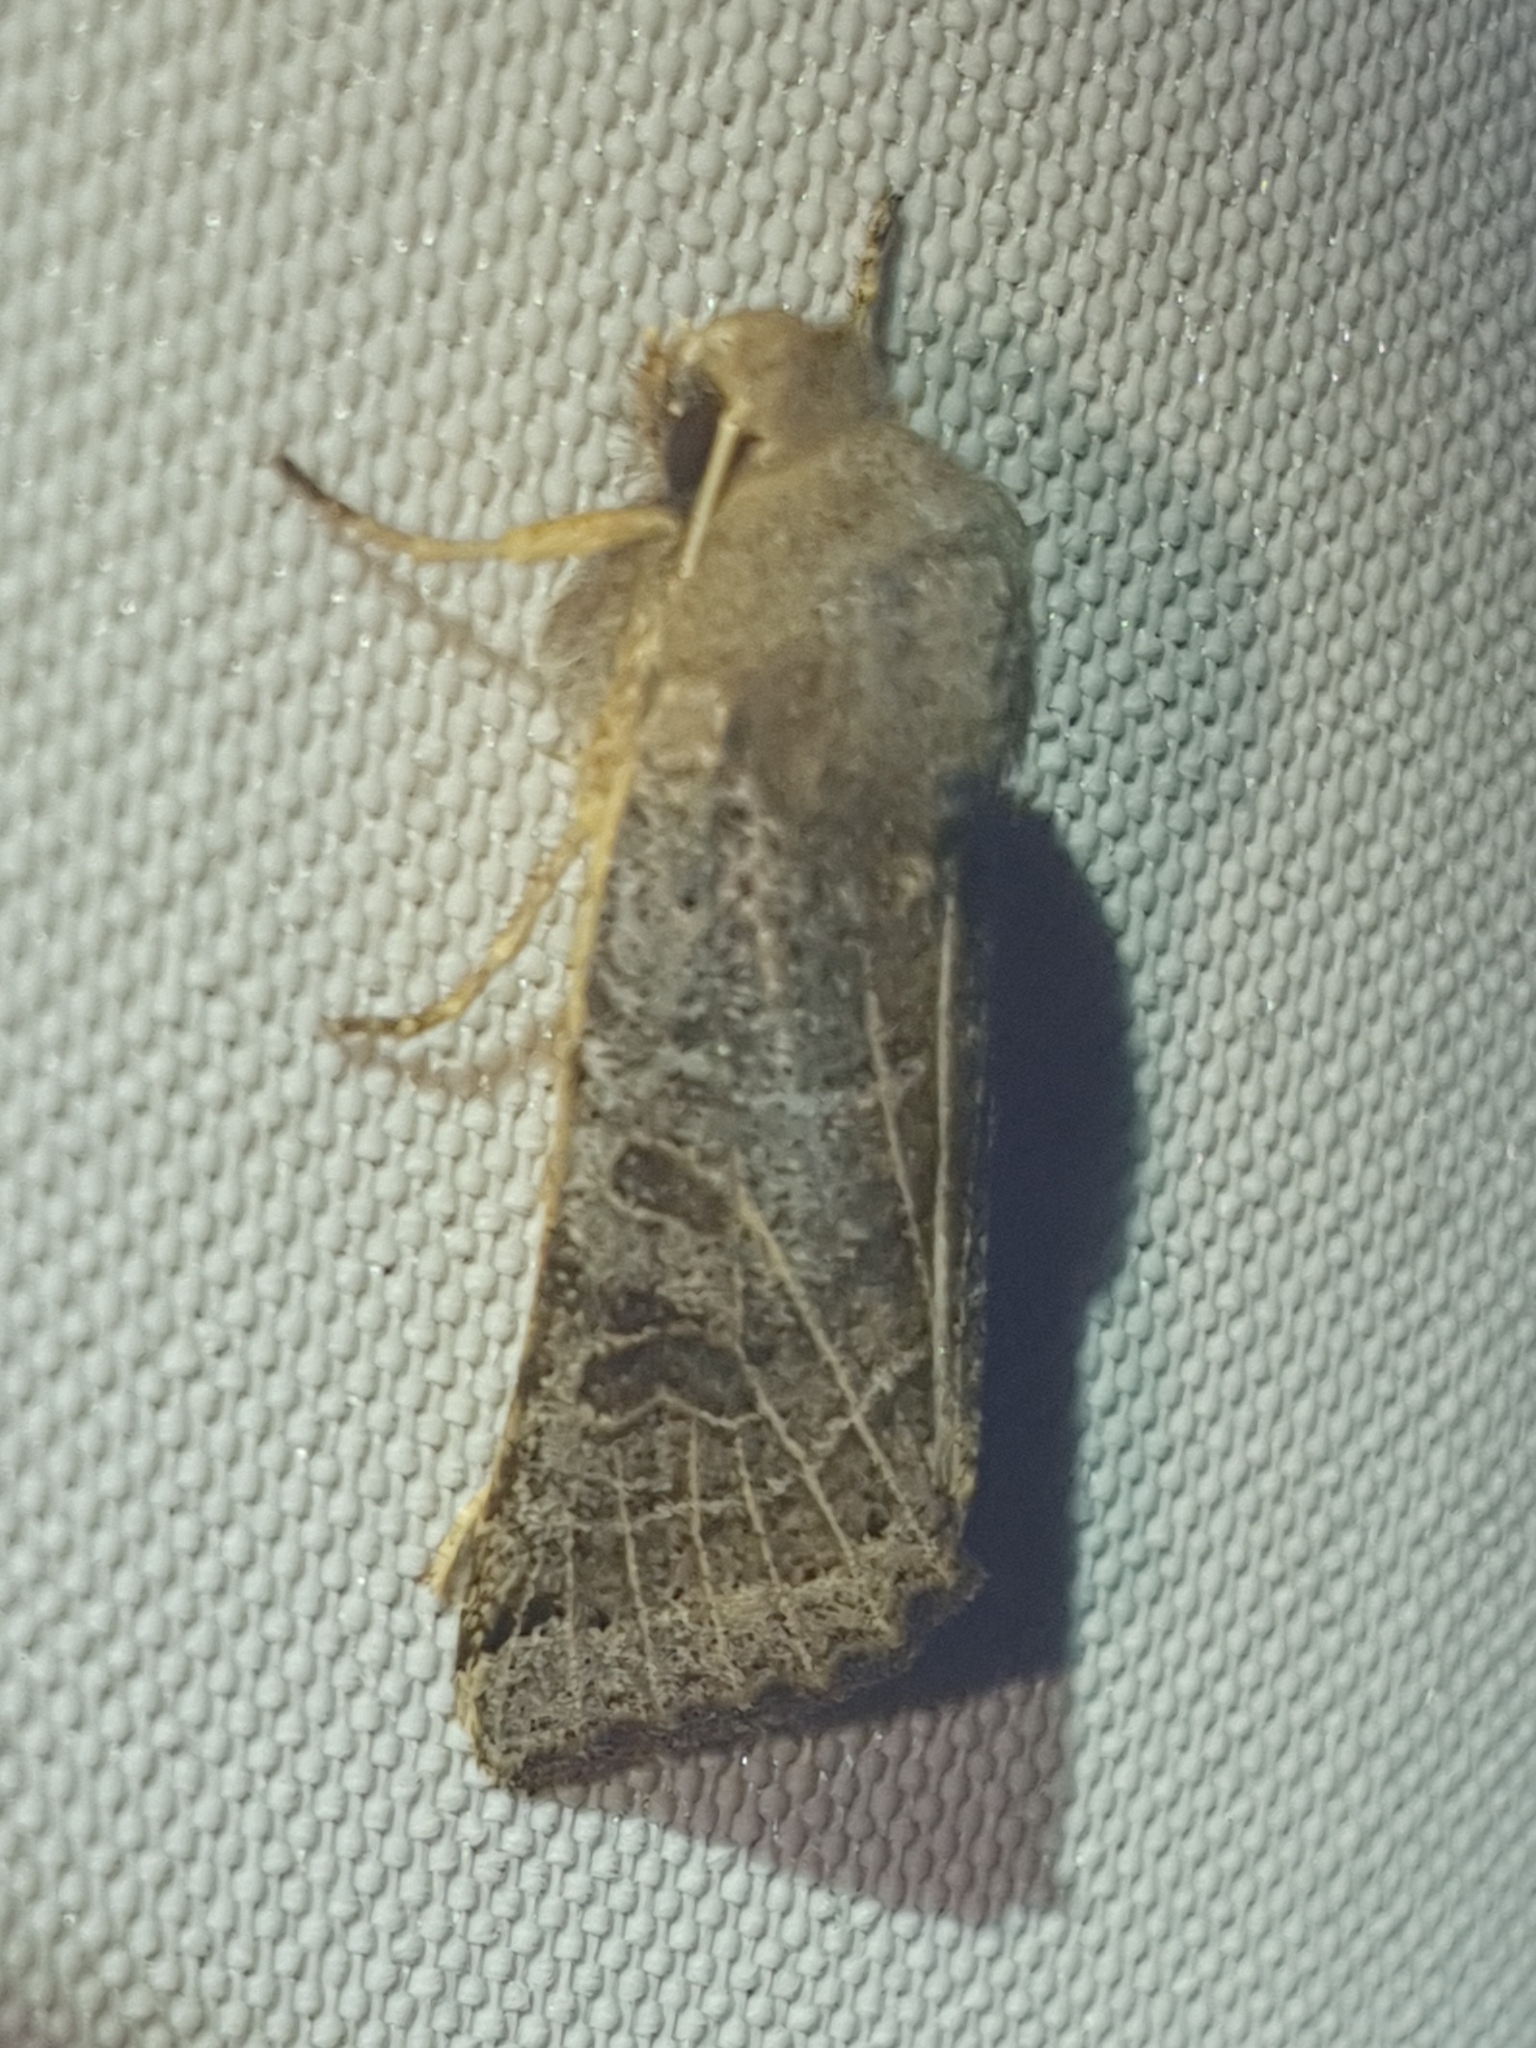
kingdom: Animalia
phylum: Arthropoda
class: Insecta
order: Lepidoptera
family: Noctuidae
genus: Agrochola
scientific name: Agrochola lunosa
